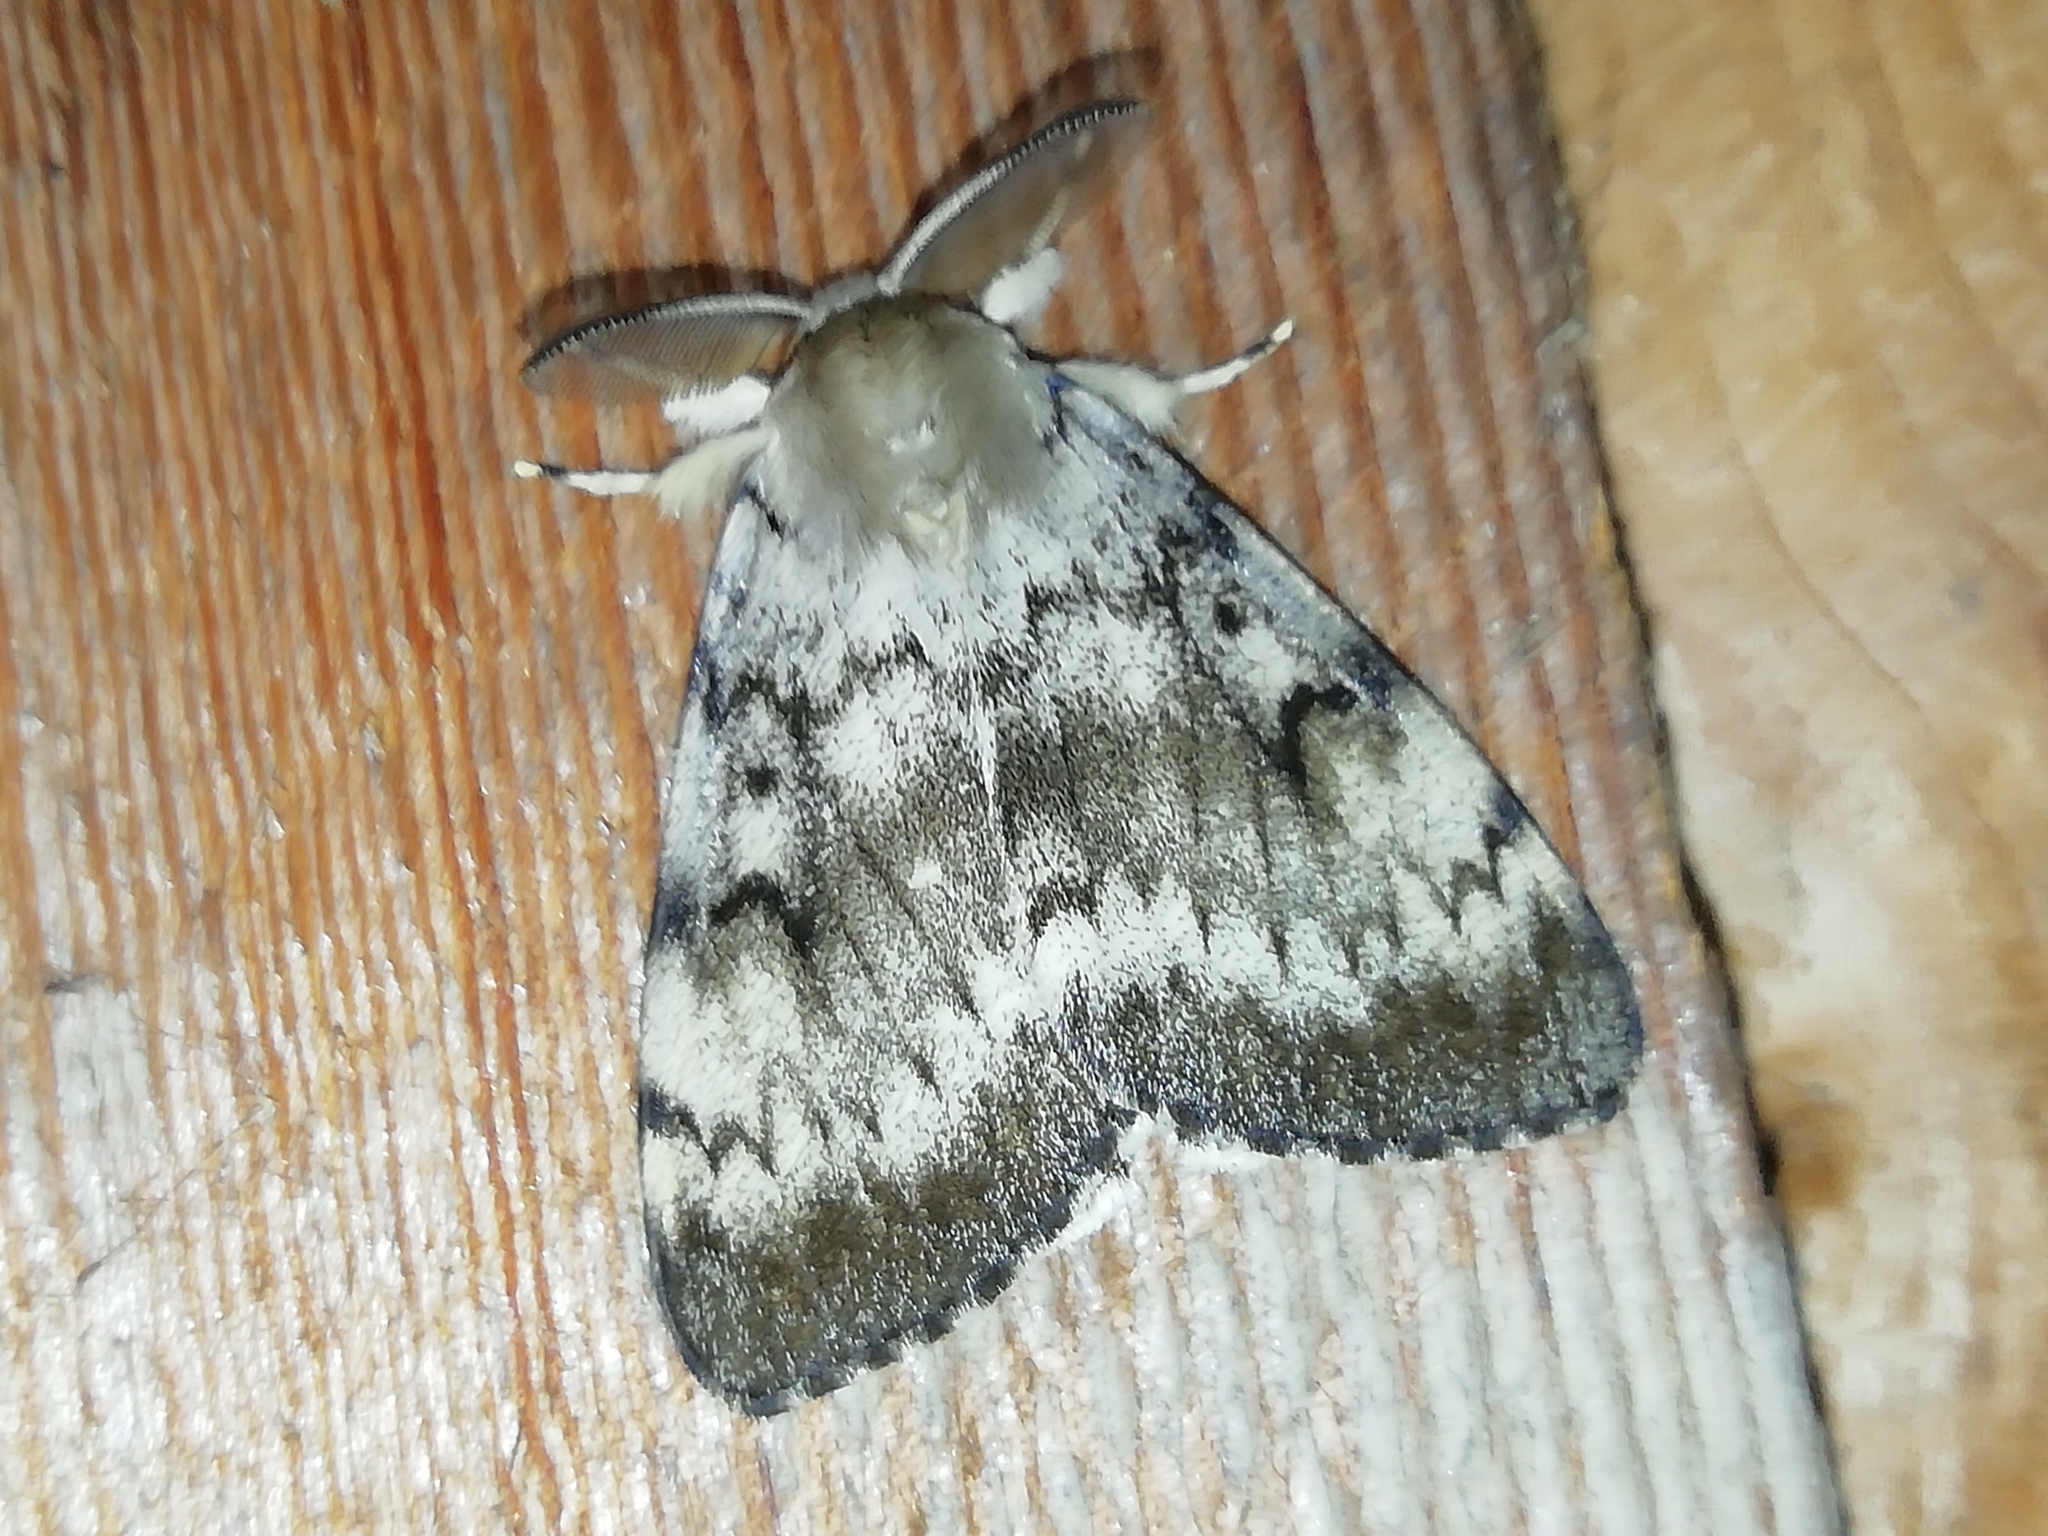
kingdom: Animalia
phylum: Arthropoda
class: Insecta
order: Lepidoptera
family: Erebidae
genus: Lymantria
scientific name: Lymantria dispar
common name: Gypsy moth
